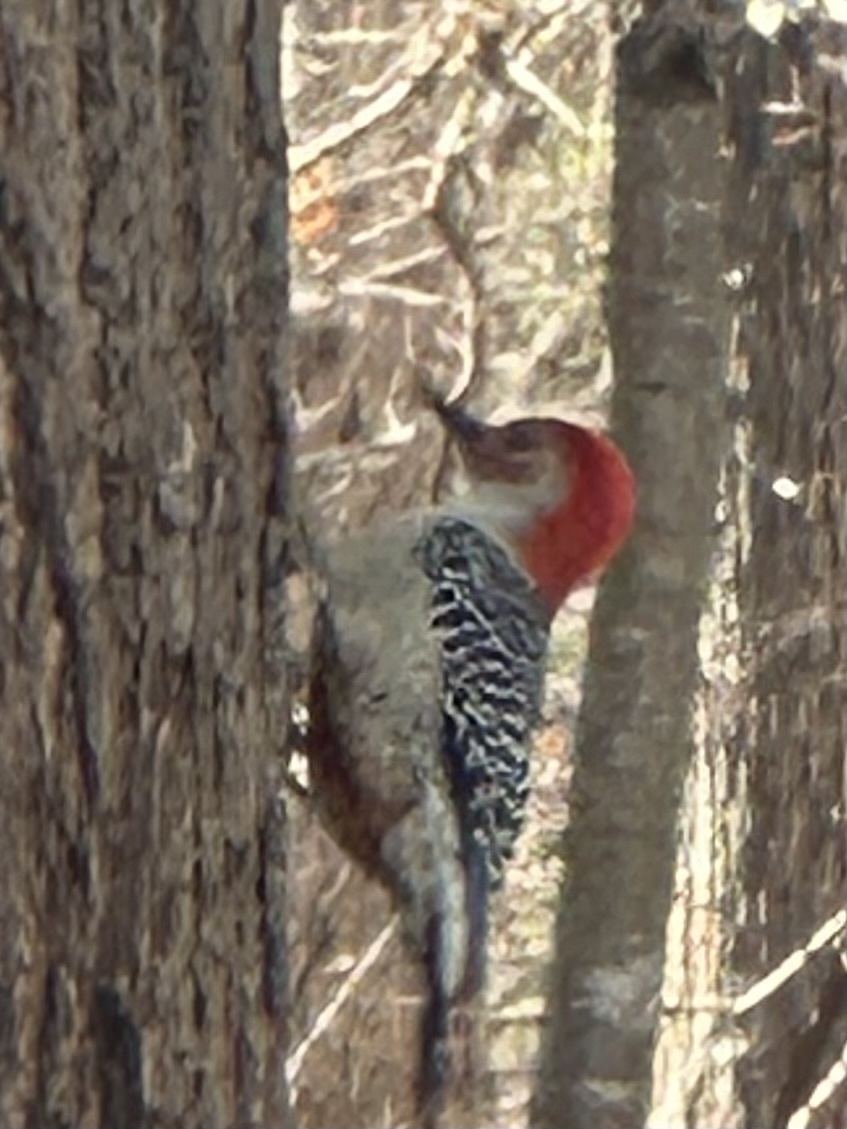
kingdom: Animalia
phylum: Chordata
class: Aves
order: Piciformes
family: Picidae
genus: Melanerpes
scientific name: Melanerpes carolinus
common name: Red-bellied woodpecker
